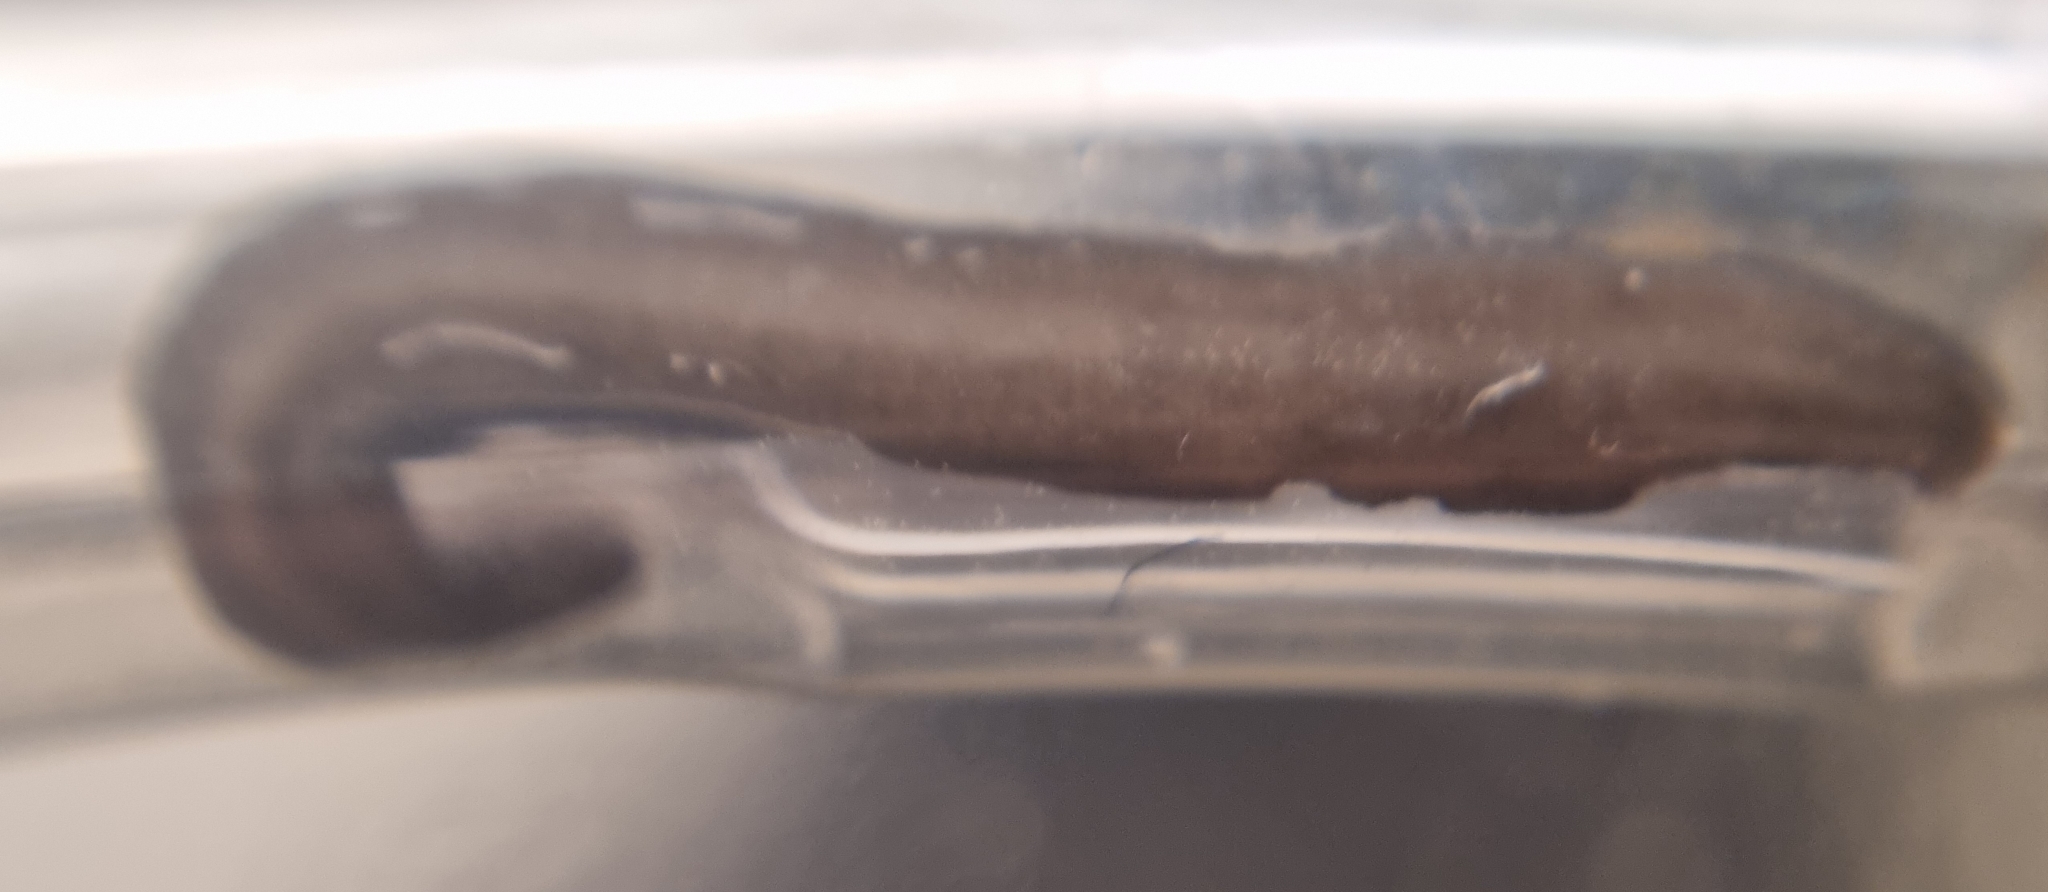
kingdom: Animalia
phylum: Platyhelminthes
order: Tricladida
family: Geoplanidae
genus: Parakontikia
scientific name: Parakontikia ventrolineata
